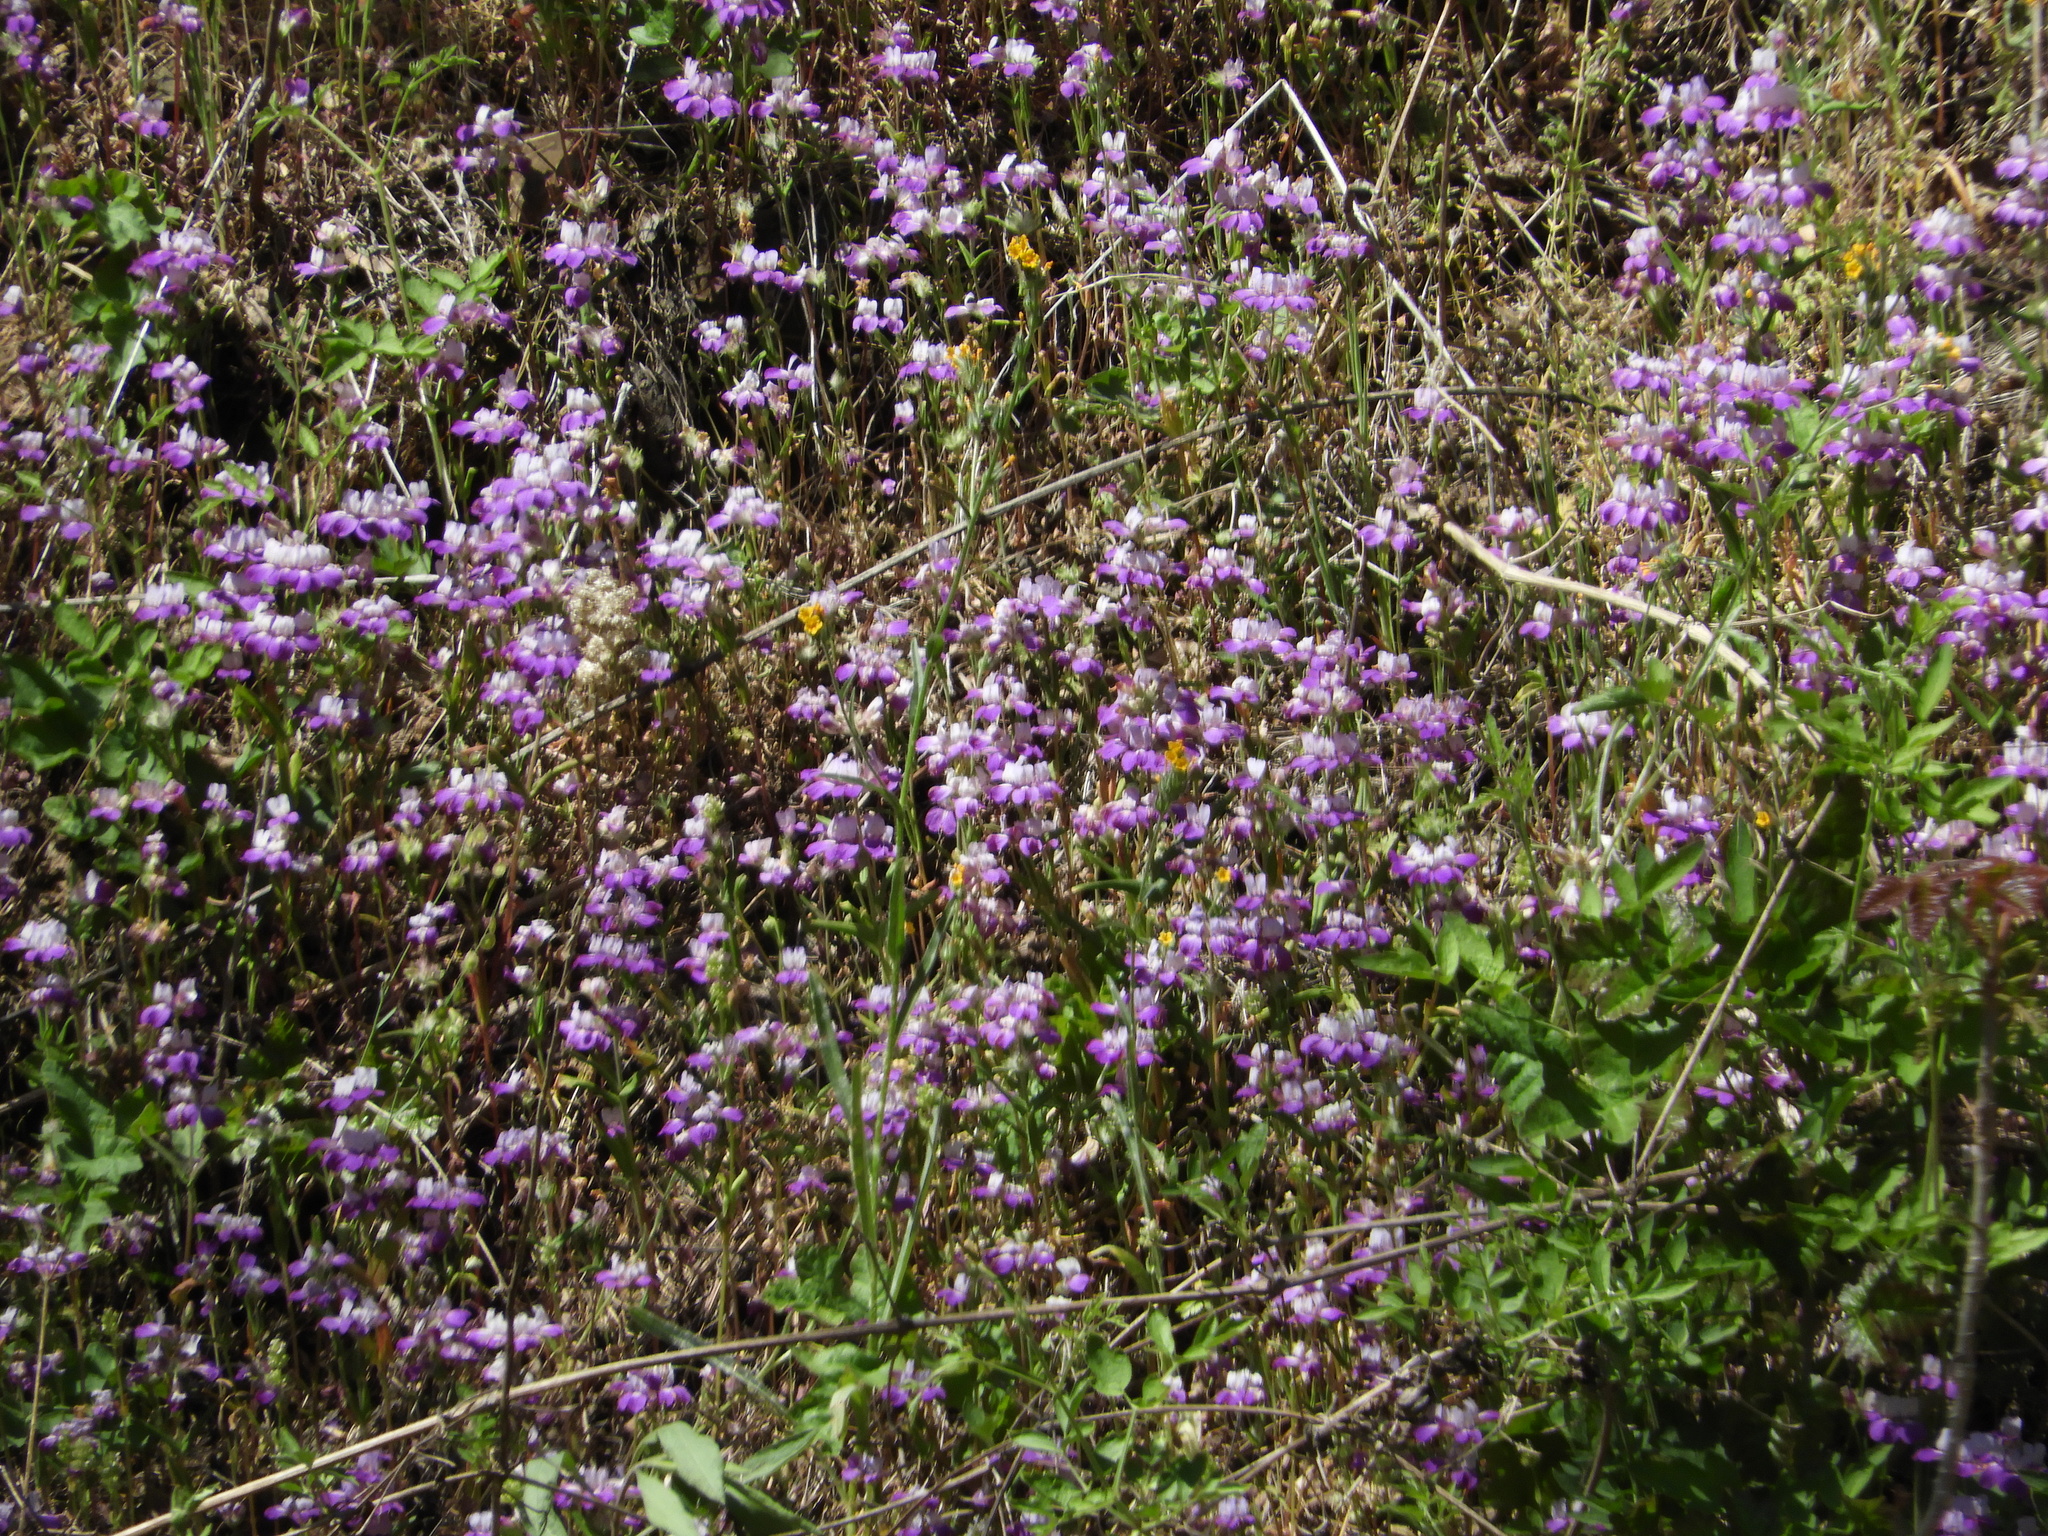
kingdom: Plantae
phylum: Tracheophyta
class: Magnoliopsida
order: Lamiales
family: Plantaginaceae
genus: Collinsia
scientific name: Collinsia heterophylla
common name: Chinese-houses
